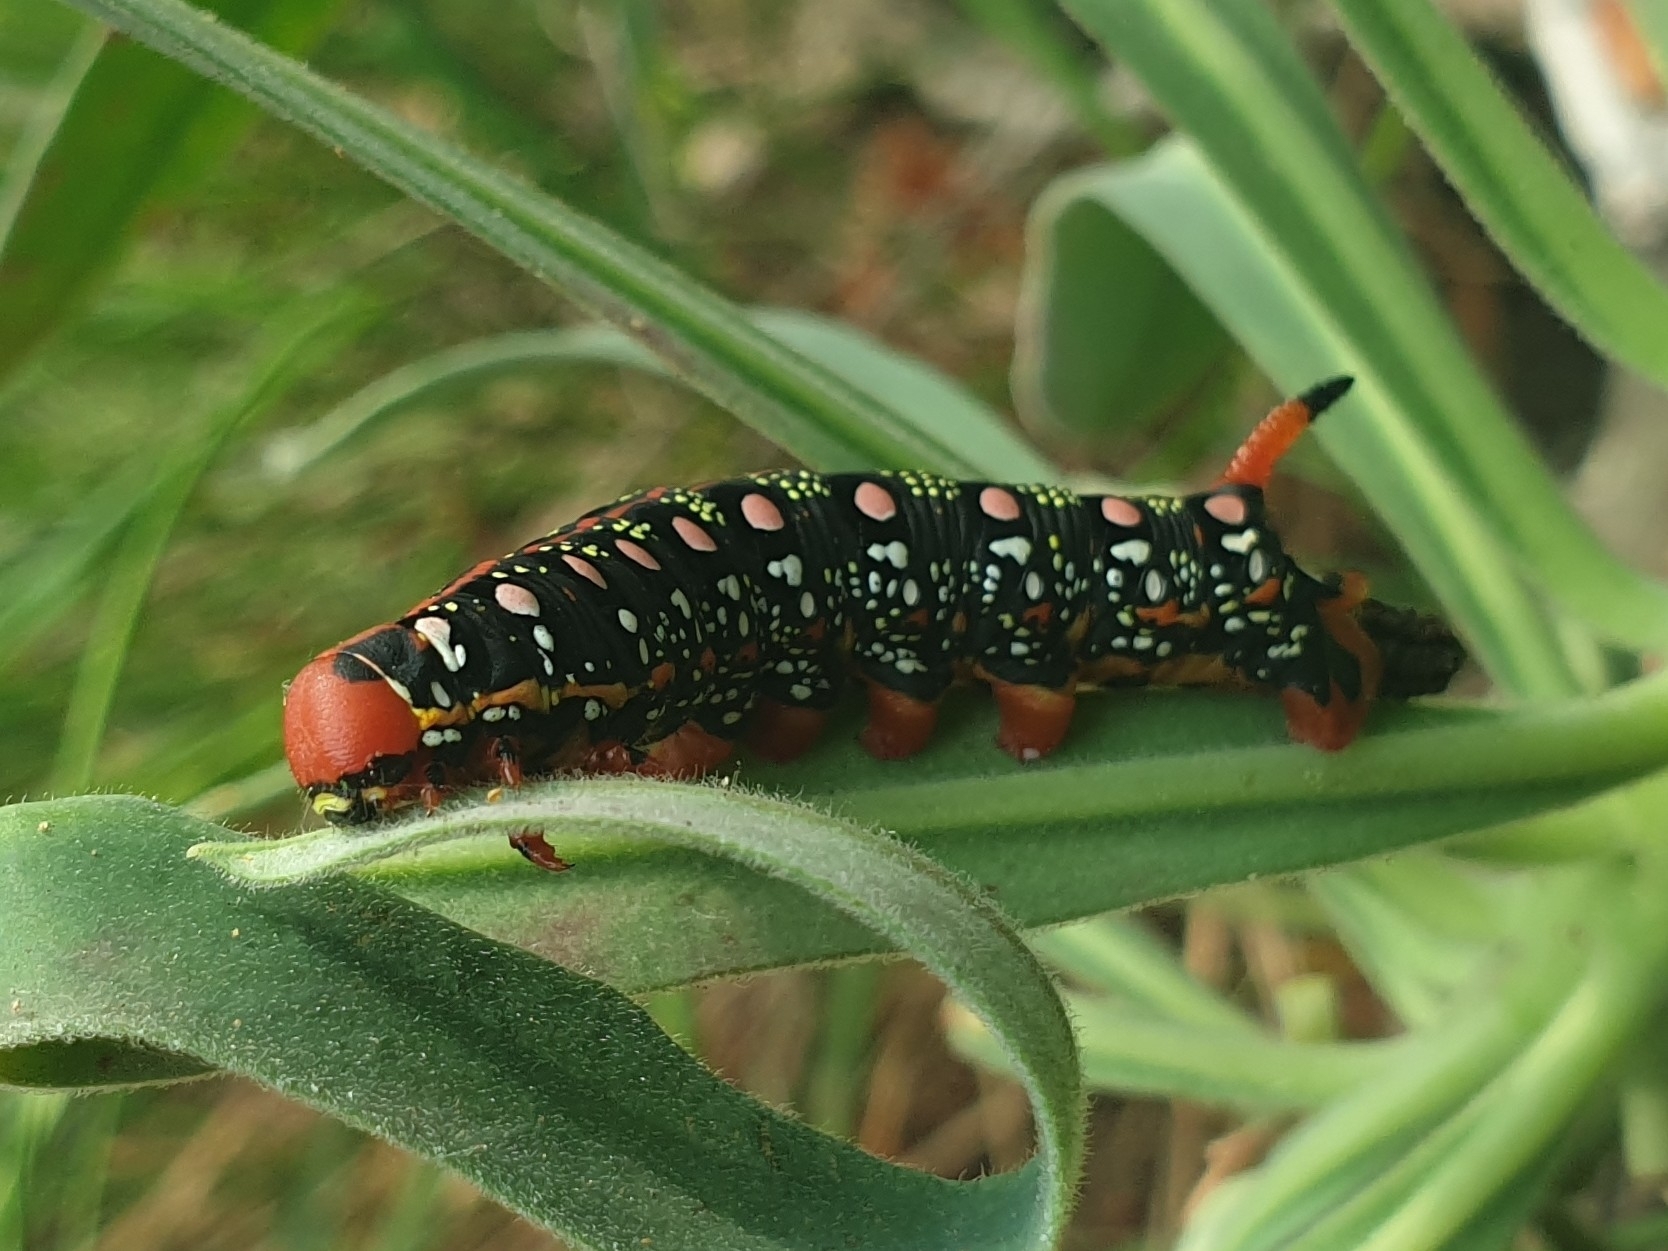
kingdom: Animalia
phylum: Arthropoda
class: Insecta
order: Lepidoptera
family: Sphingidae
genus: Hyles
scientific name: Hyles euphorbiae
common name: Spurge hawk-moth
